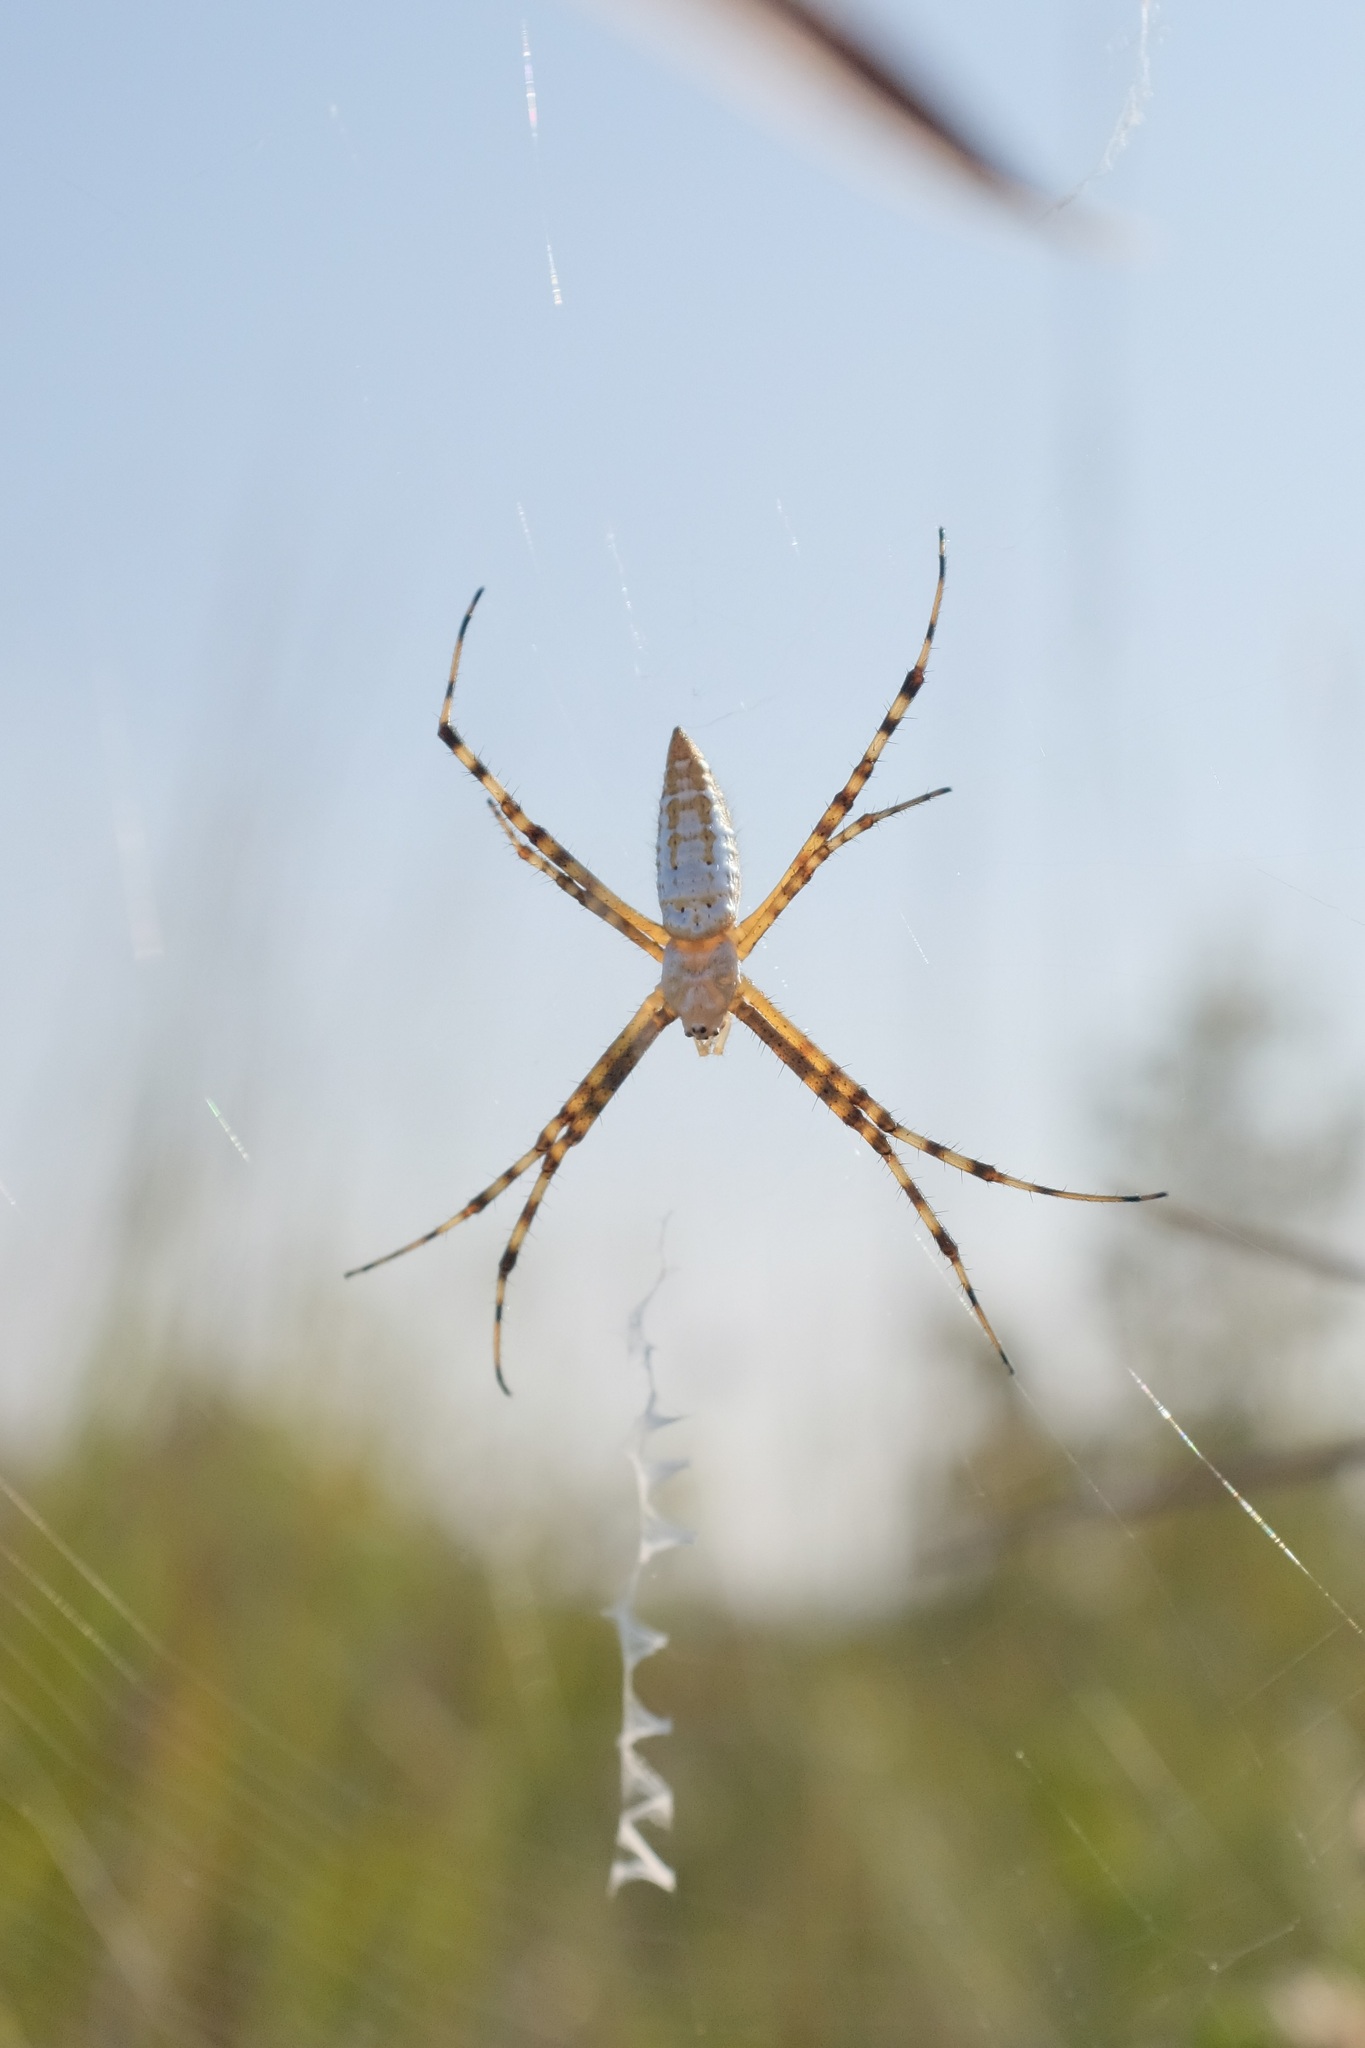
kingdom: Animalia
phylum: Arthropoda
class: Arachnida
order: Araneae
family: Araneidae
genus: Argiope
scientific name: Argiope trifasciata
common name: Banded garden spider
